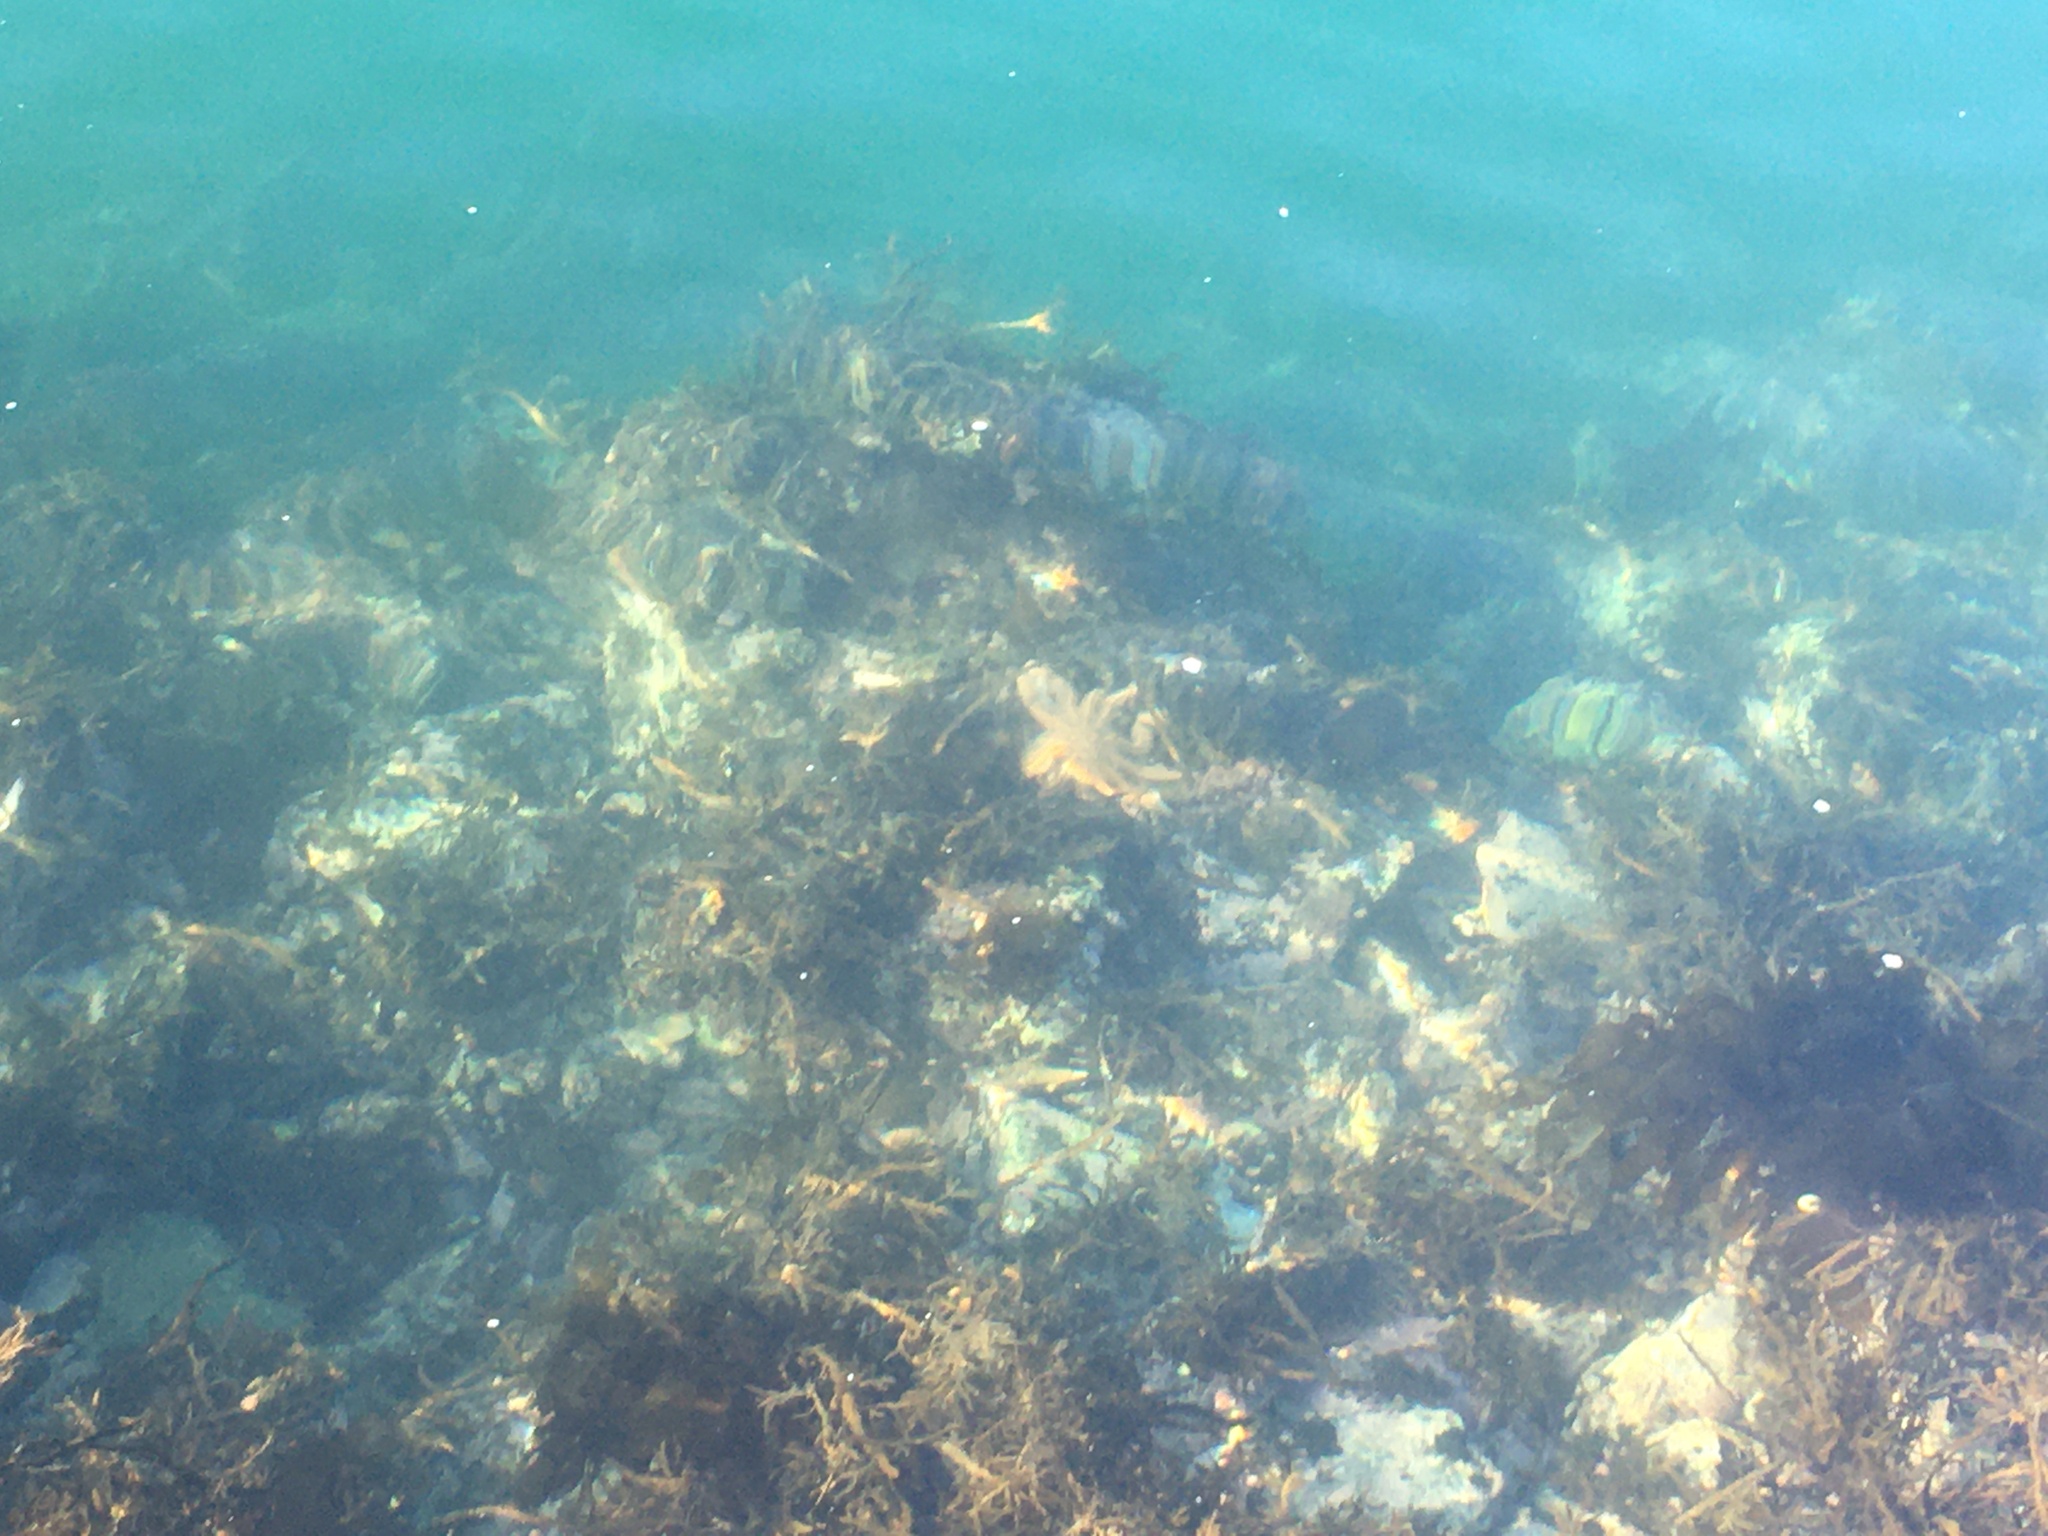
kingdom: Animalia
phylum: Echinodermata
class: Asteroidea
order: Forcipulatida
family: Stichasteridae
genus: Stichaster
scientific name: Stichaster australis
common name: Reef starfish
